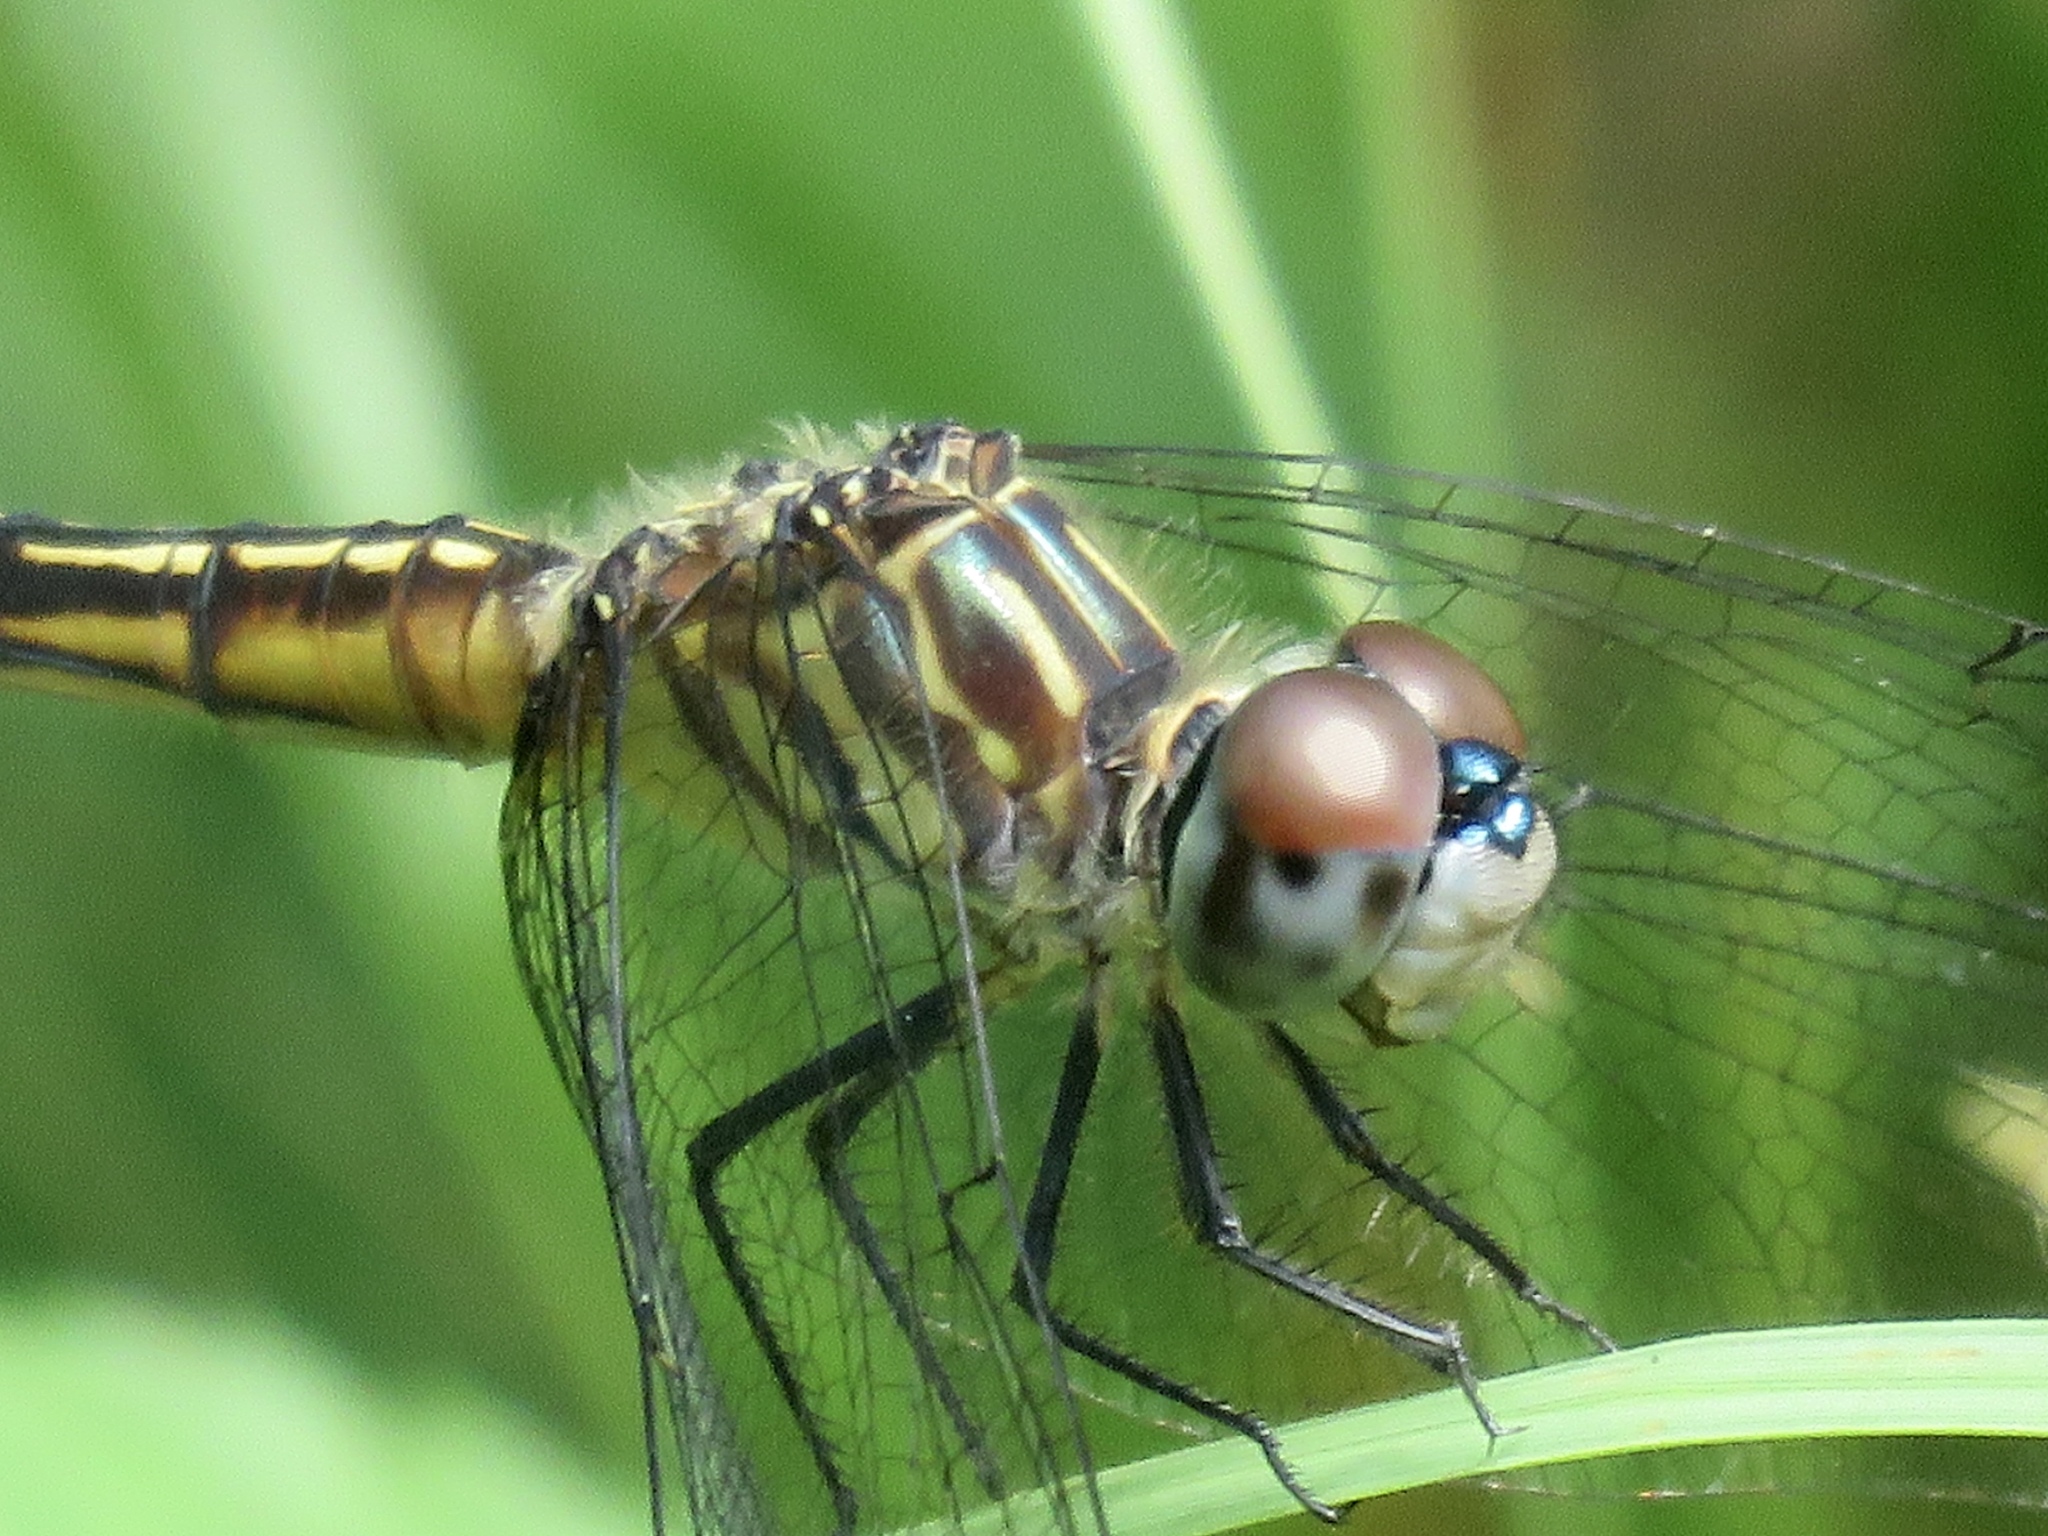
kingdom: Animalia
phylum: Arthropoda
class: Insecta
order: Odonata
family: Libellulidae
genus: Pachydiplax
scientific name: Pachydiplax longipennis
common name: Blue dasher
